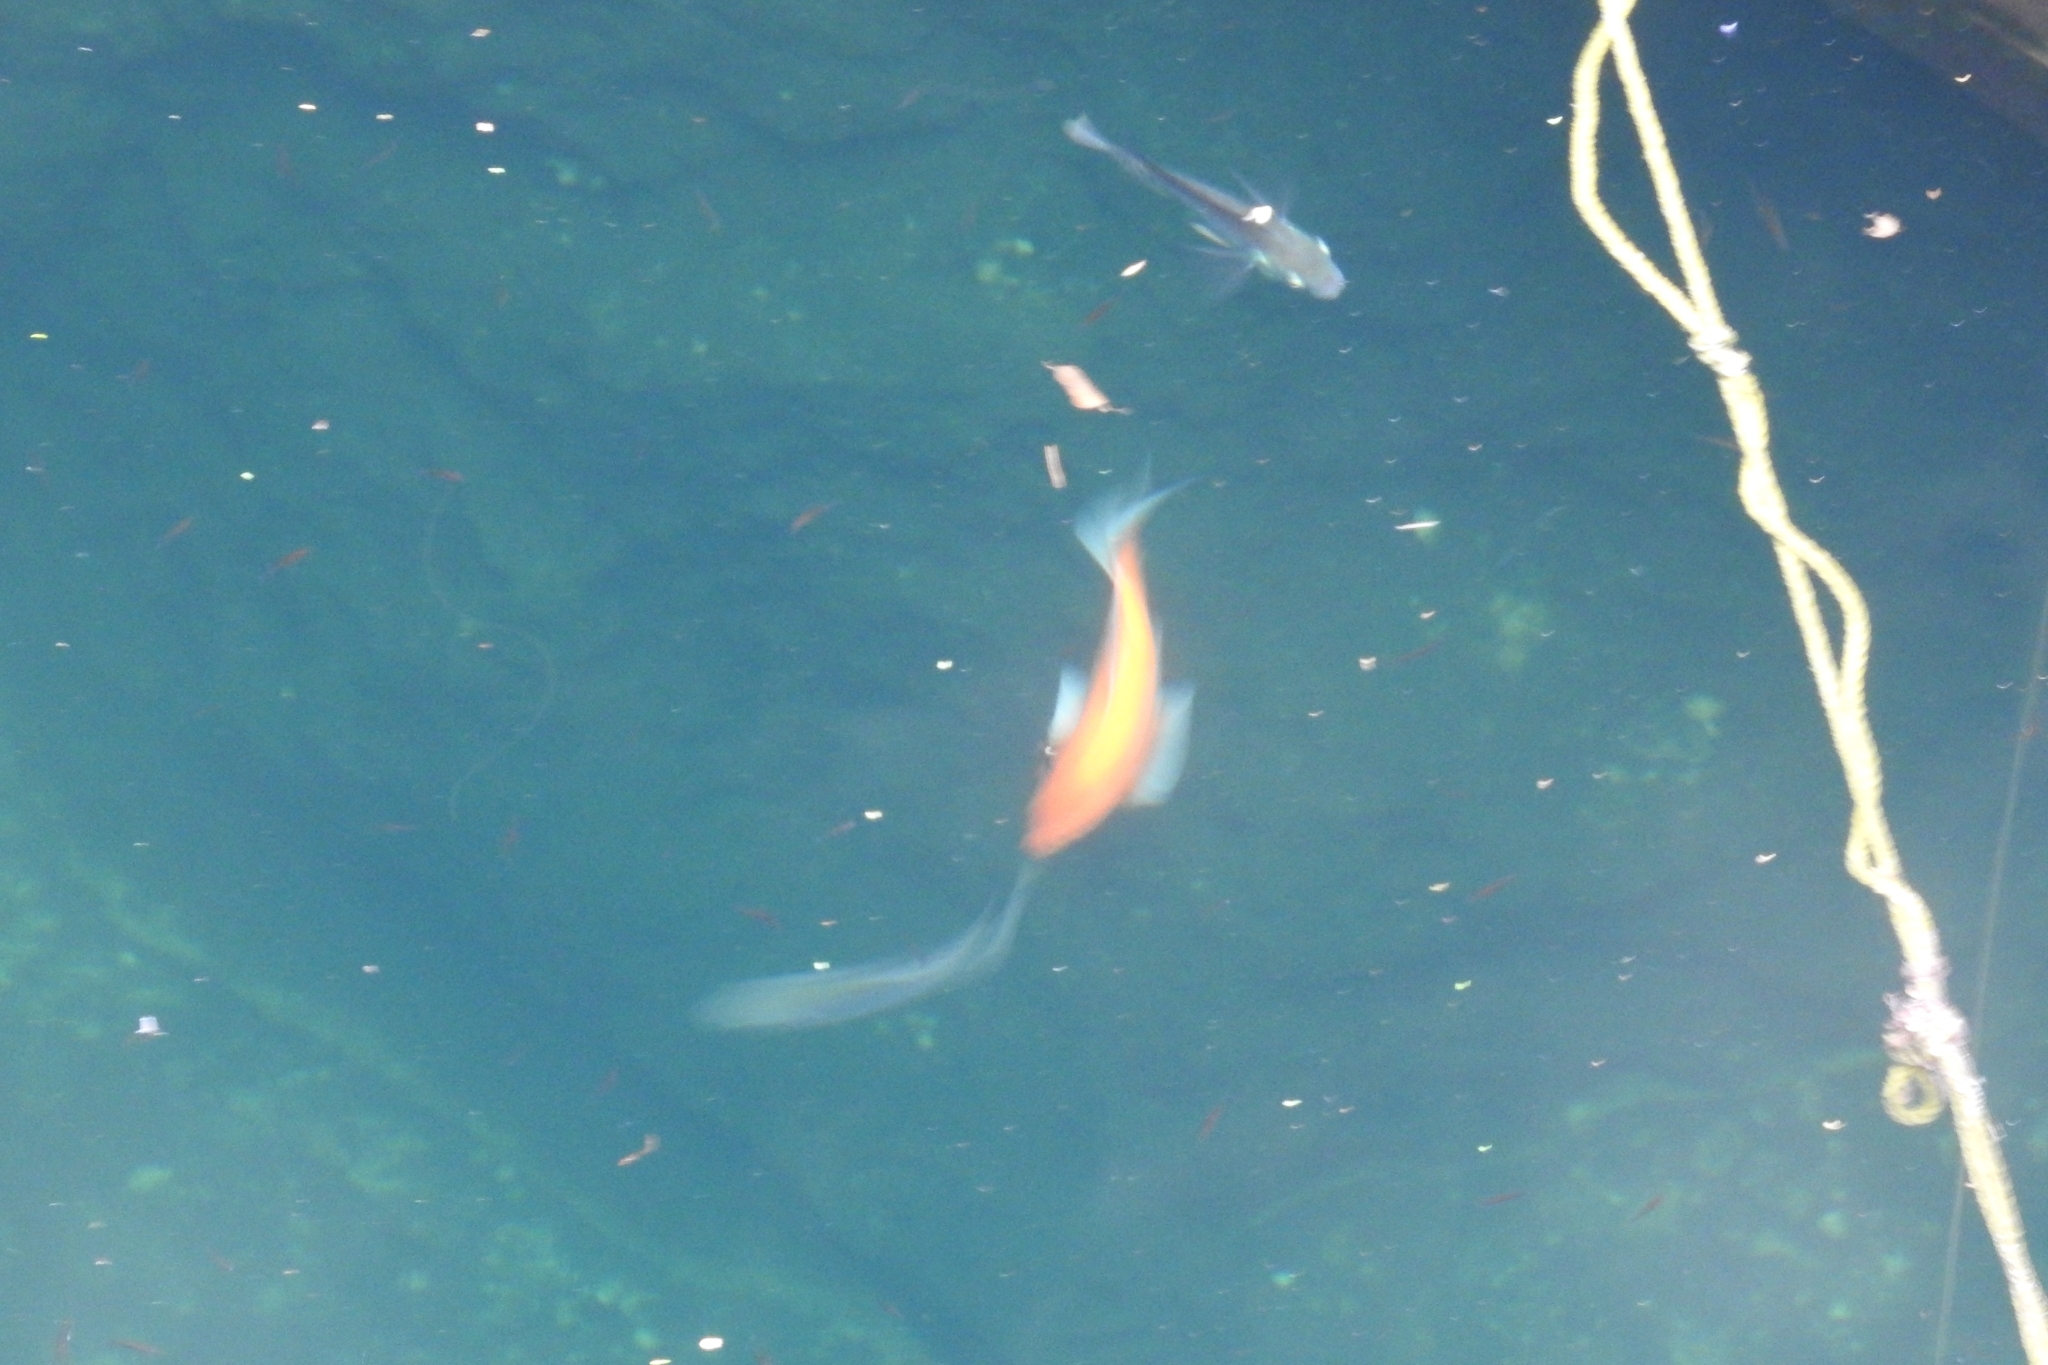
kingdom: Animalia
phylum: Chordata
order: Cypriniformes
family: Cyprinidae
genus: Carassius
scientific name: Carassius auratus
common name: Goldfish
